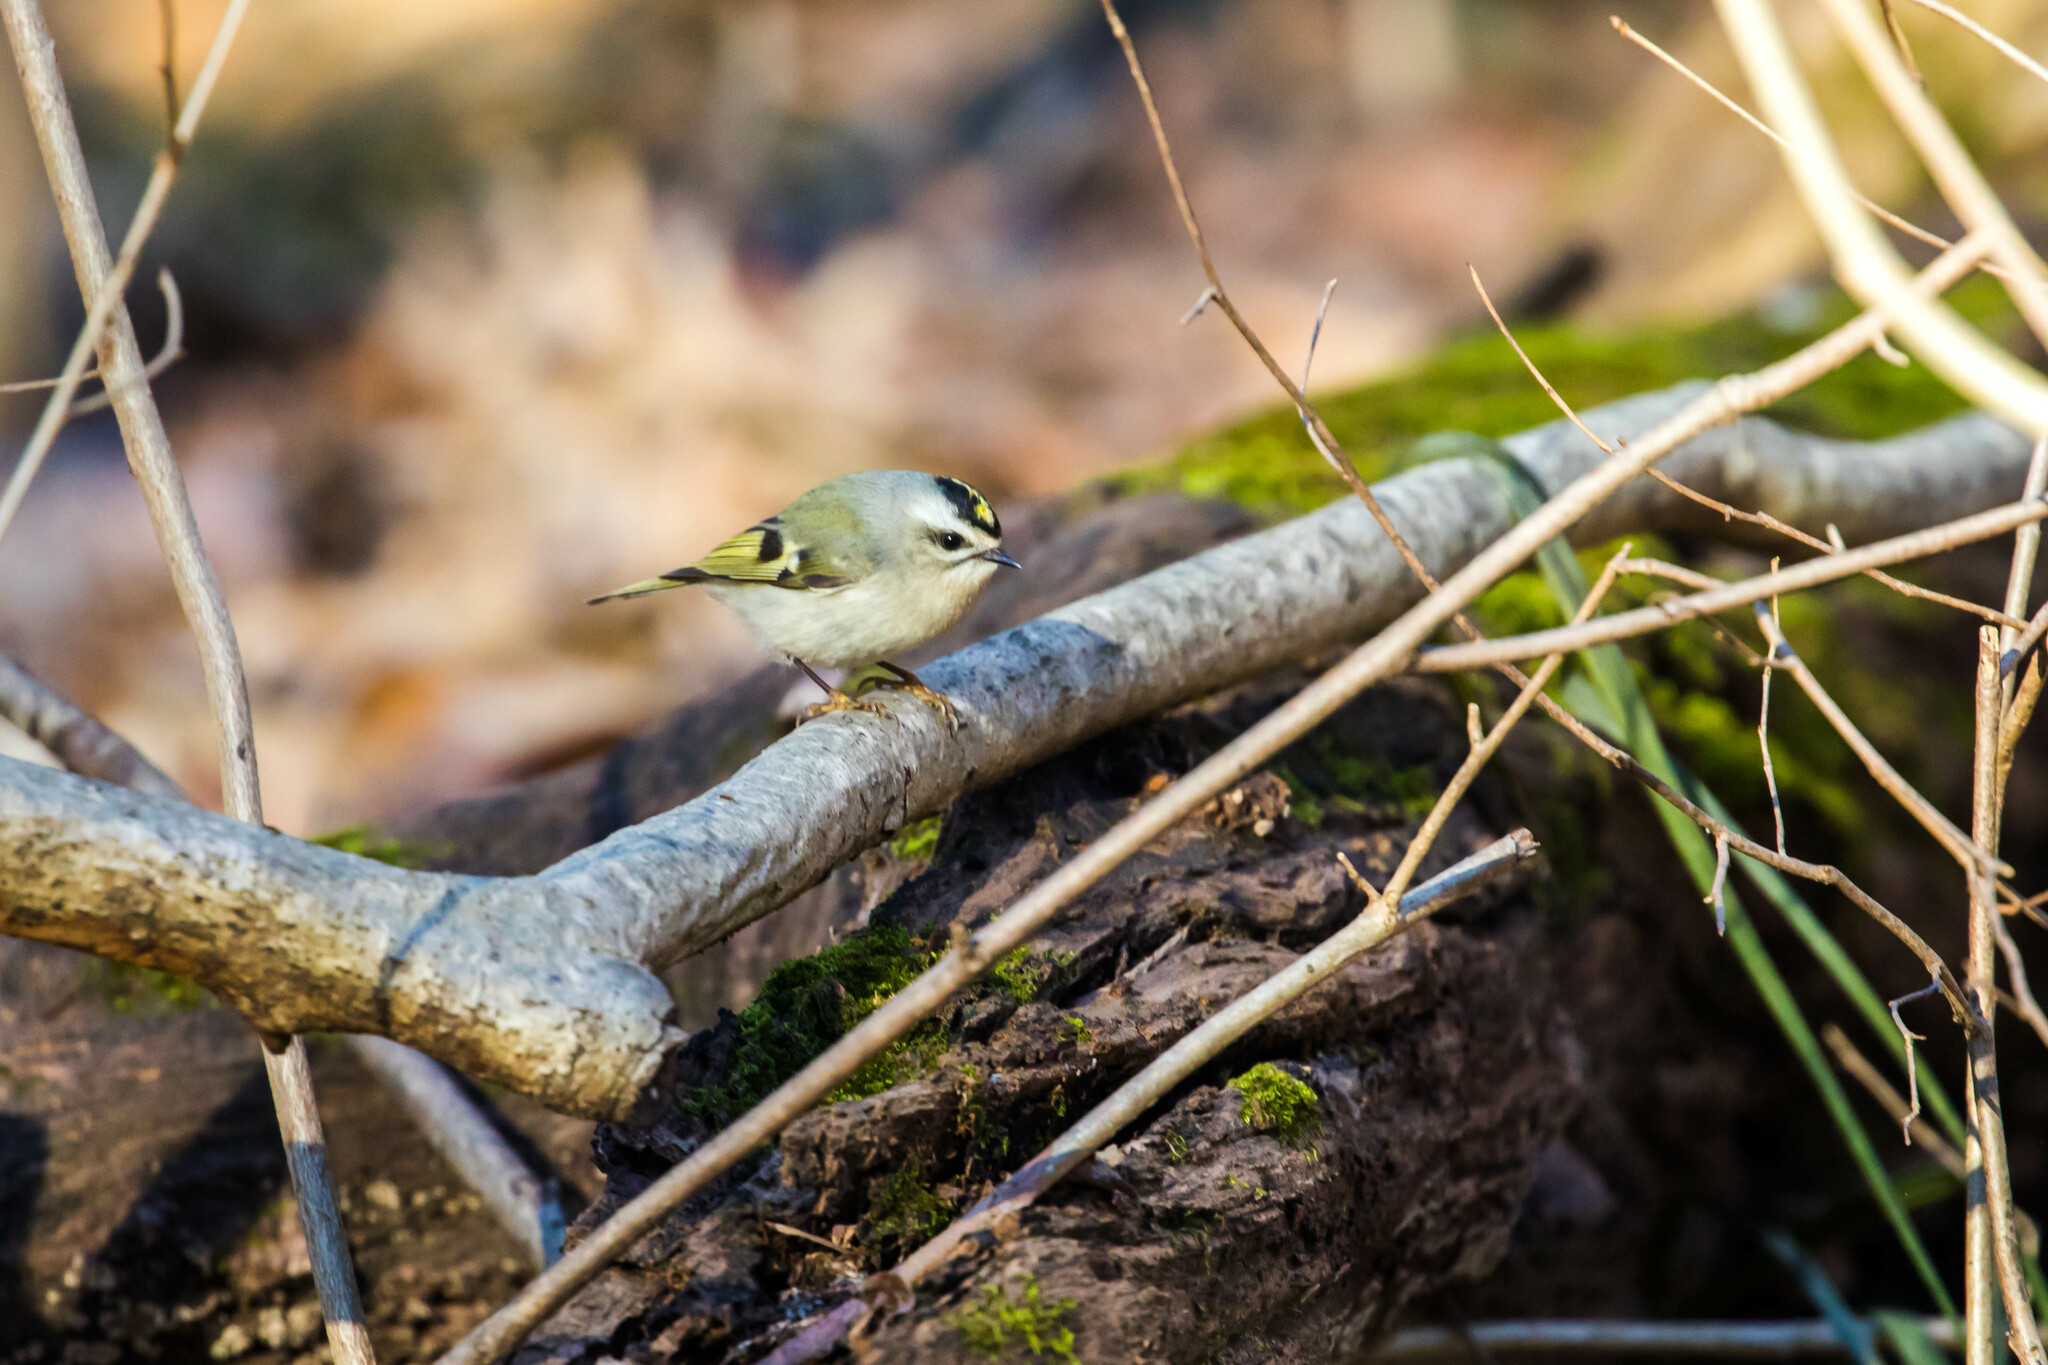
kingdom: Animalia
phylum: Chordata
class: Aves
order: Passeriformes
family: Regulidae
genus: Regulus
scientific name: Regulus satrapa
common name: Golden-crowned kinglet
